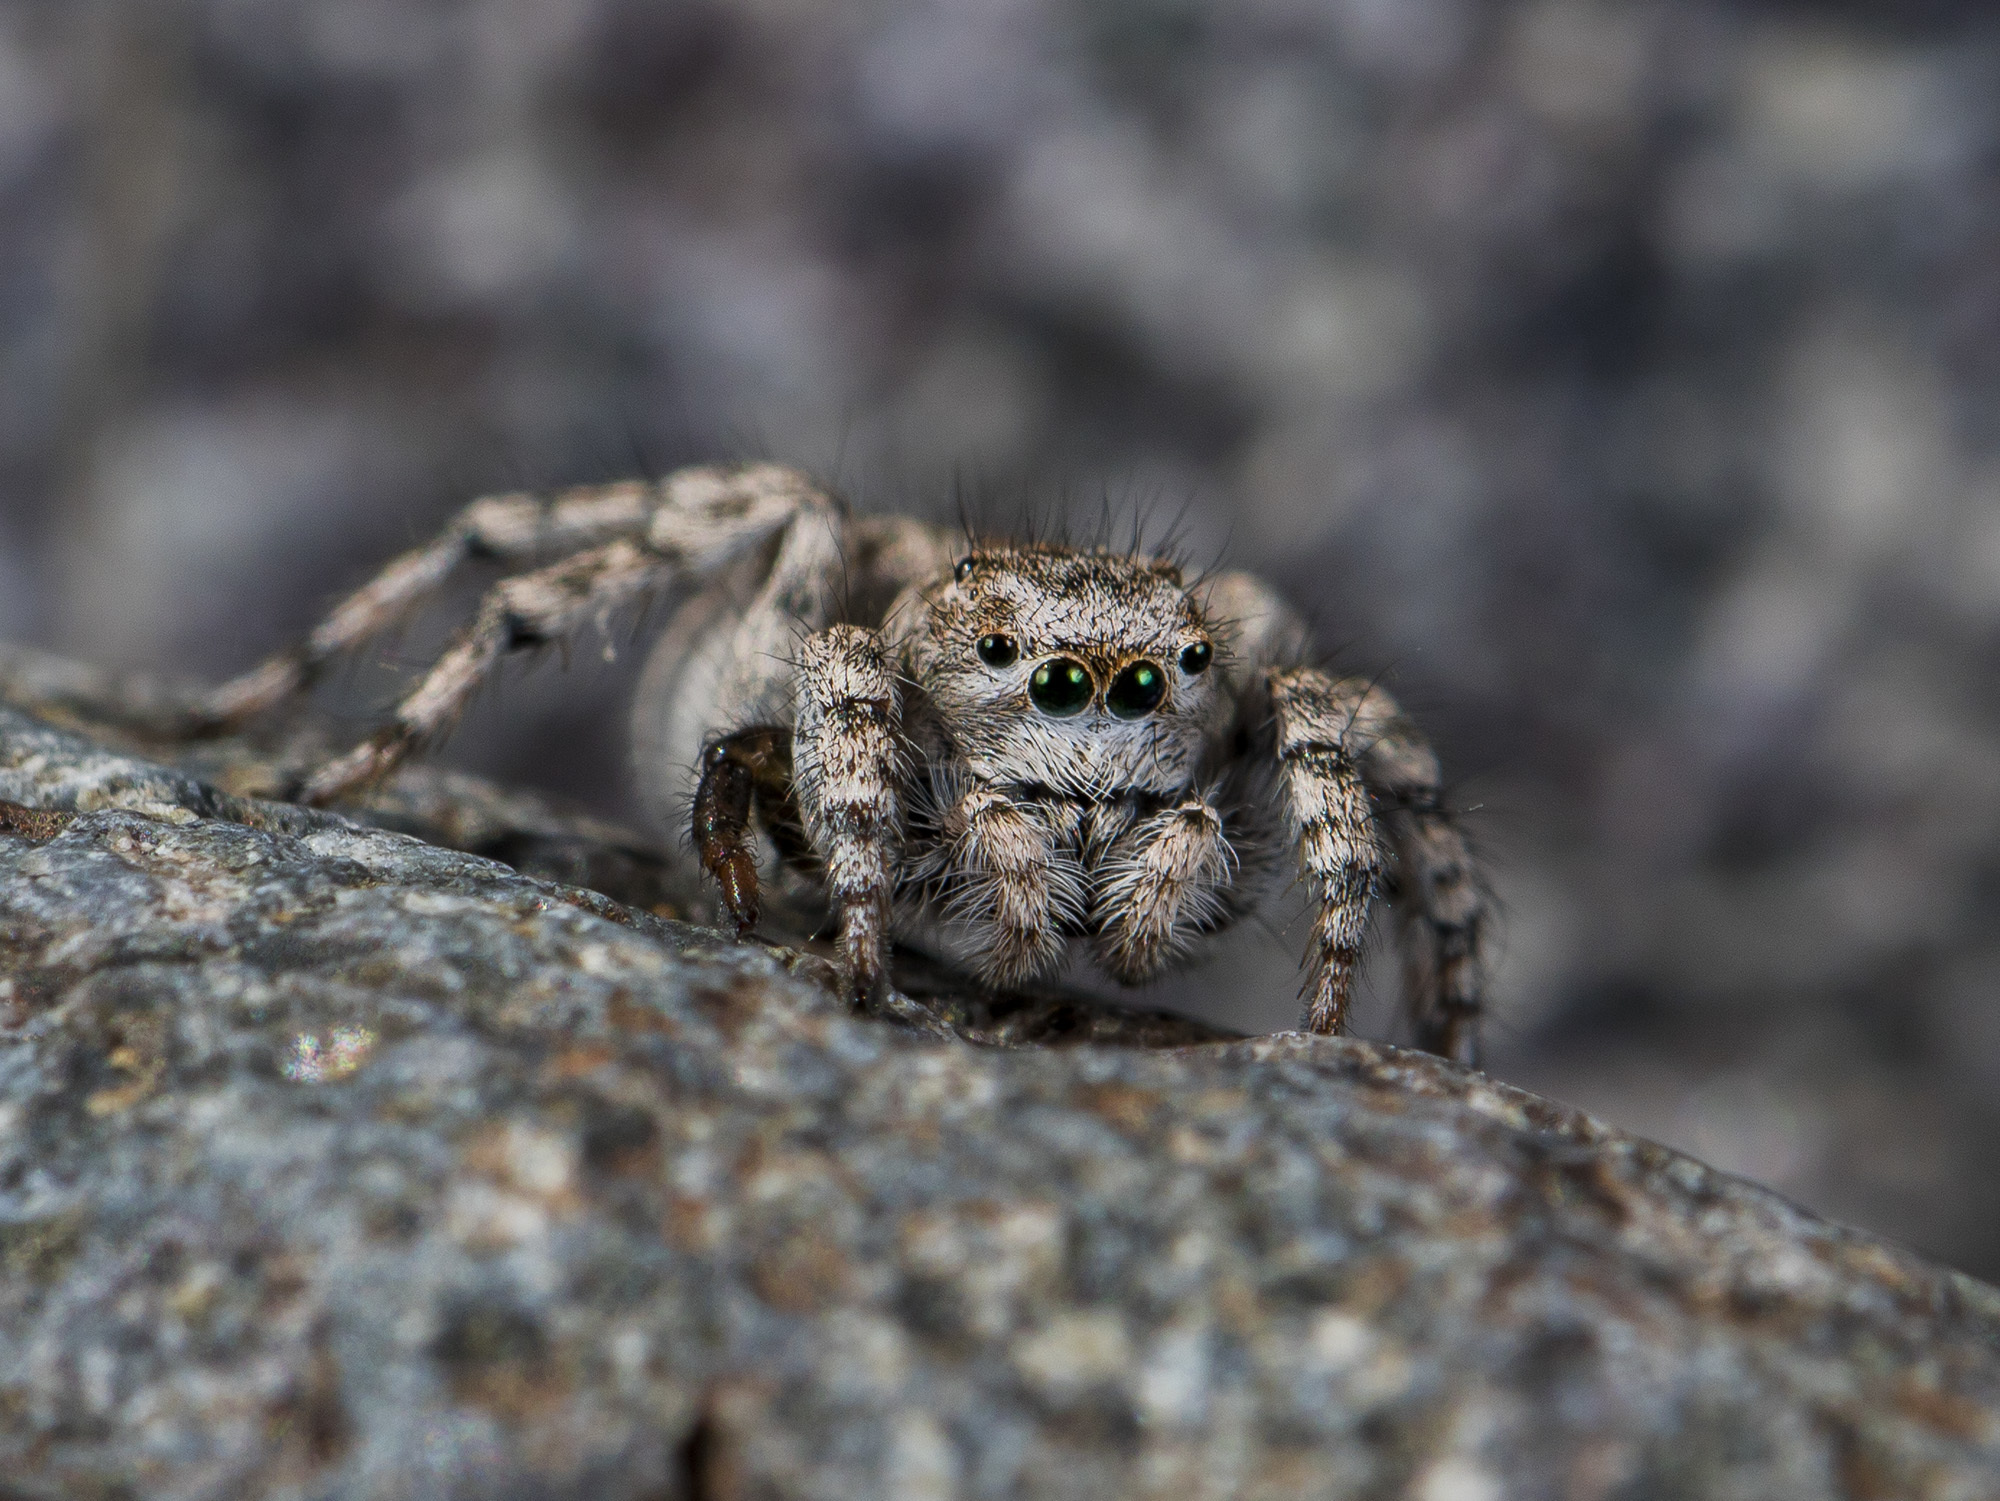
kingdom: Animalia
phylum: Arthropoda
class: Arachnida
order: Araneae
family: Salticidae
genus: Aelurillus
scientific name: Aelurillus dubatolovi
